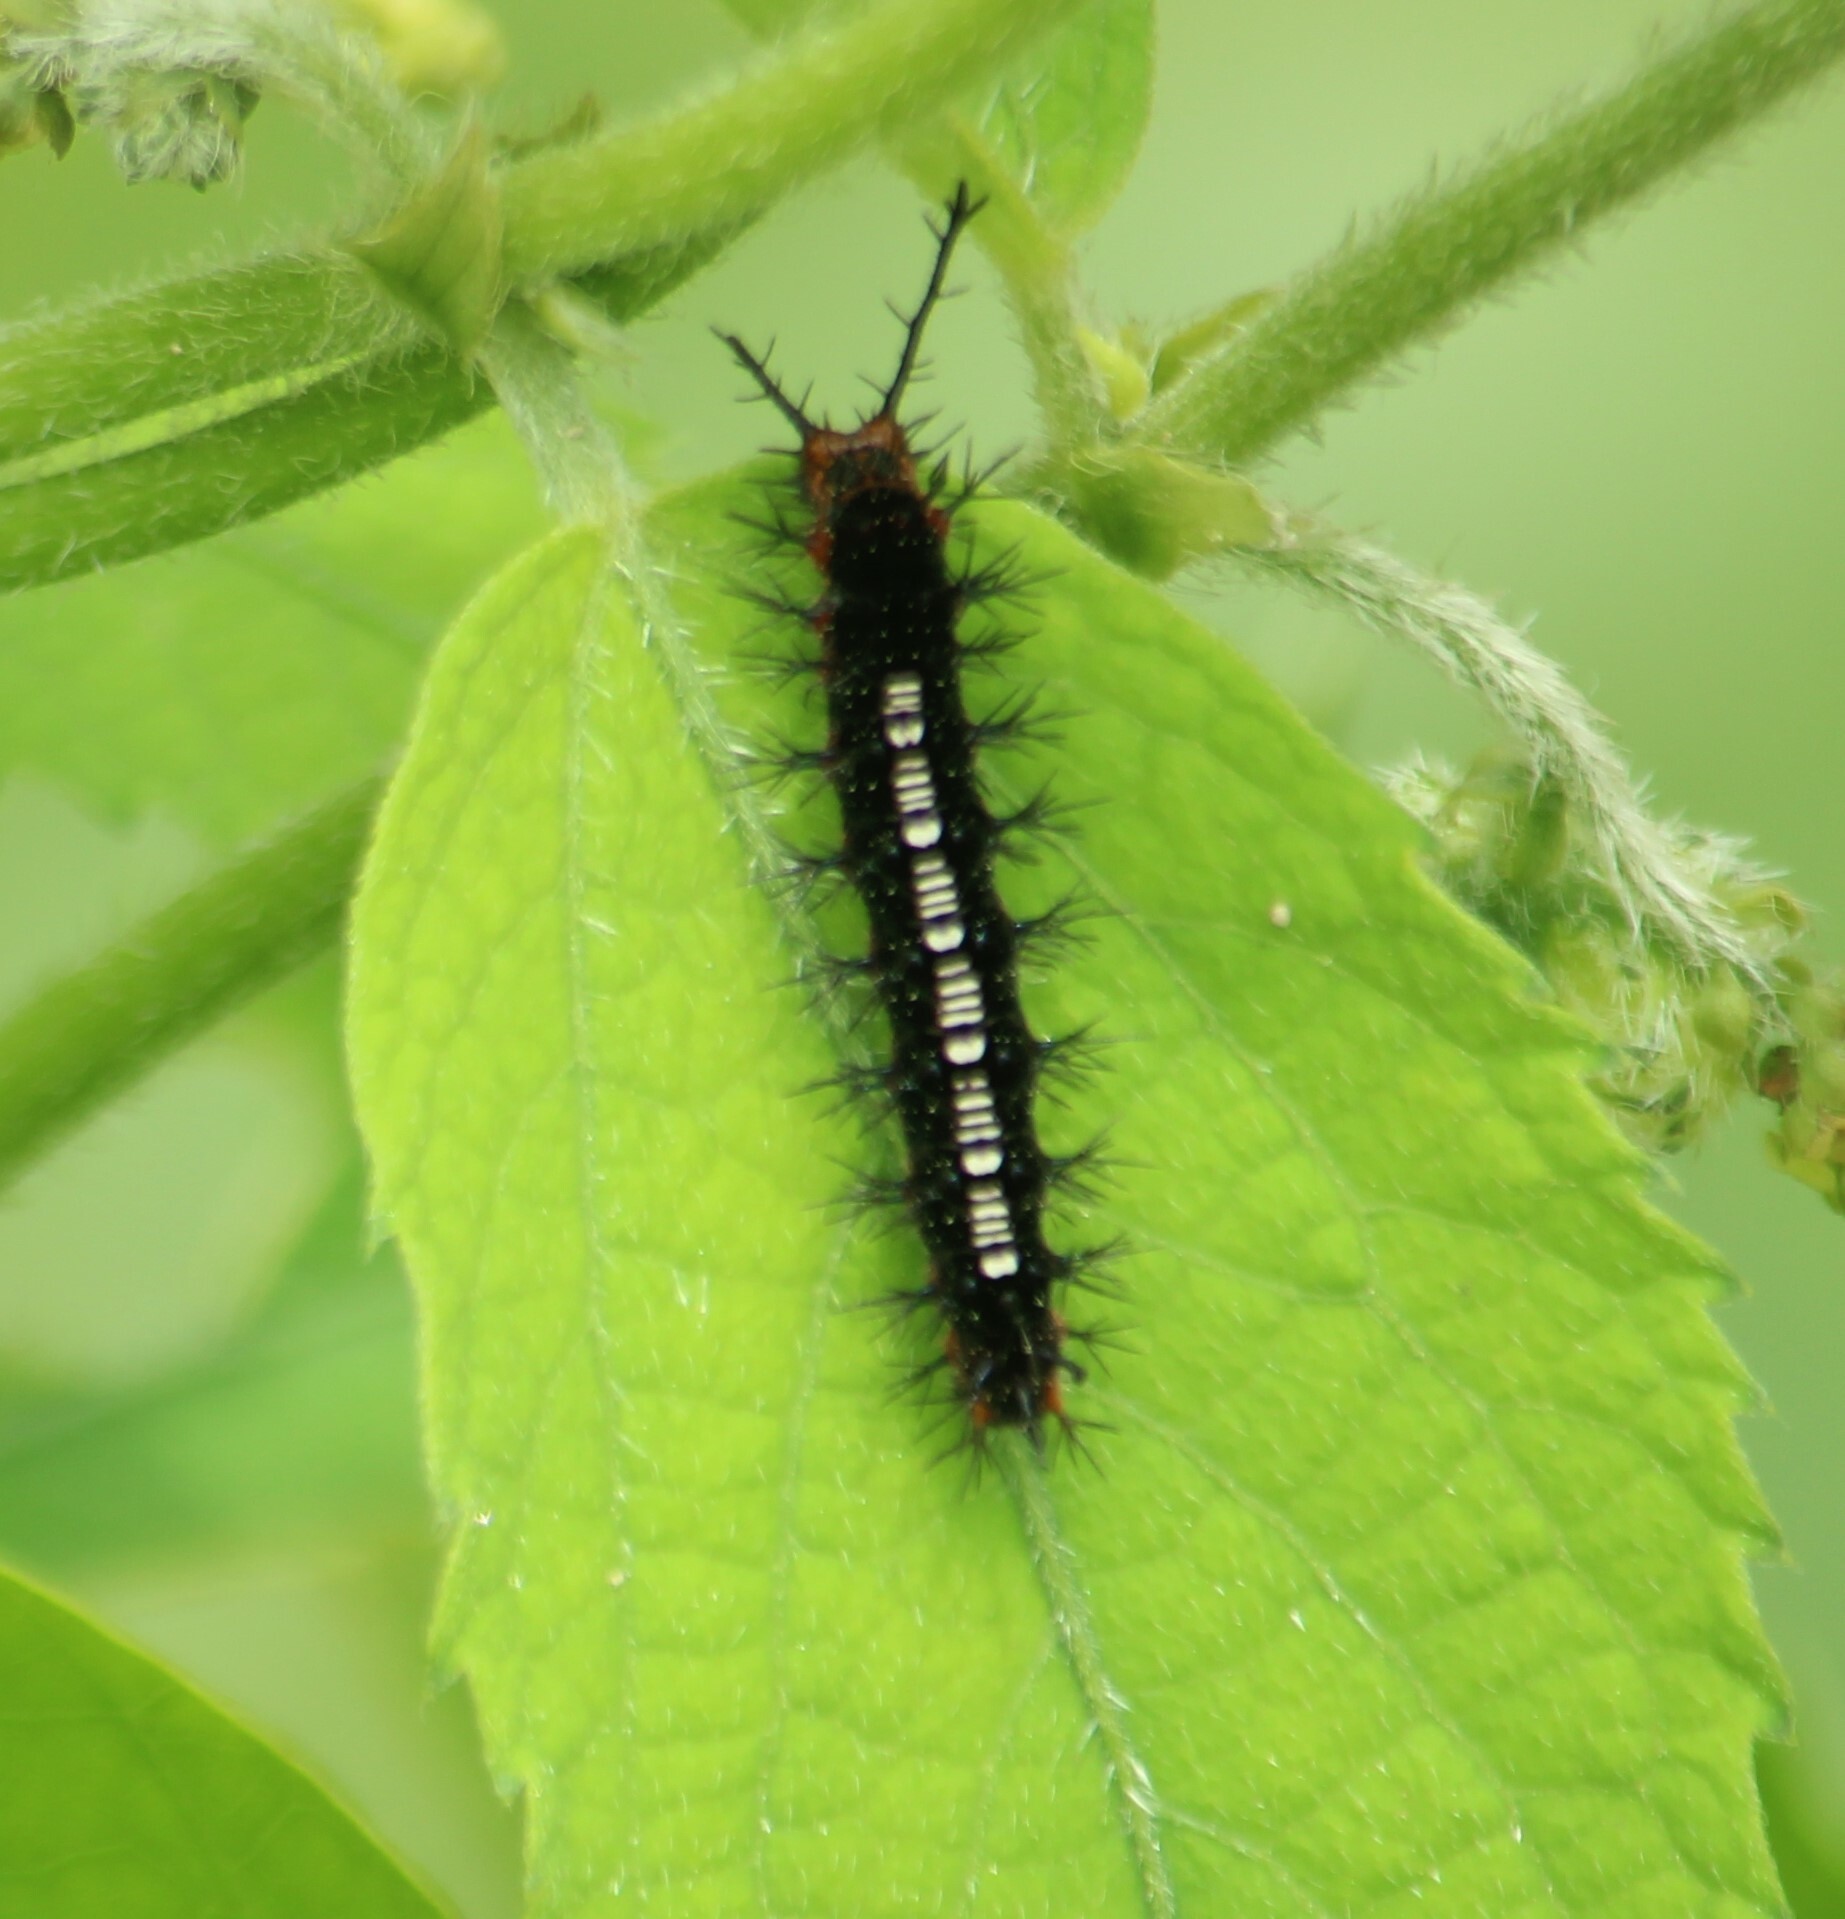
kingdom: Animalia
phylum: Arthropoda
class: Insecta
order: Lepidoptera
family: Nymphalidae
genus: Ariadne
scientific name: Ariadne ariadne
